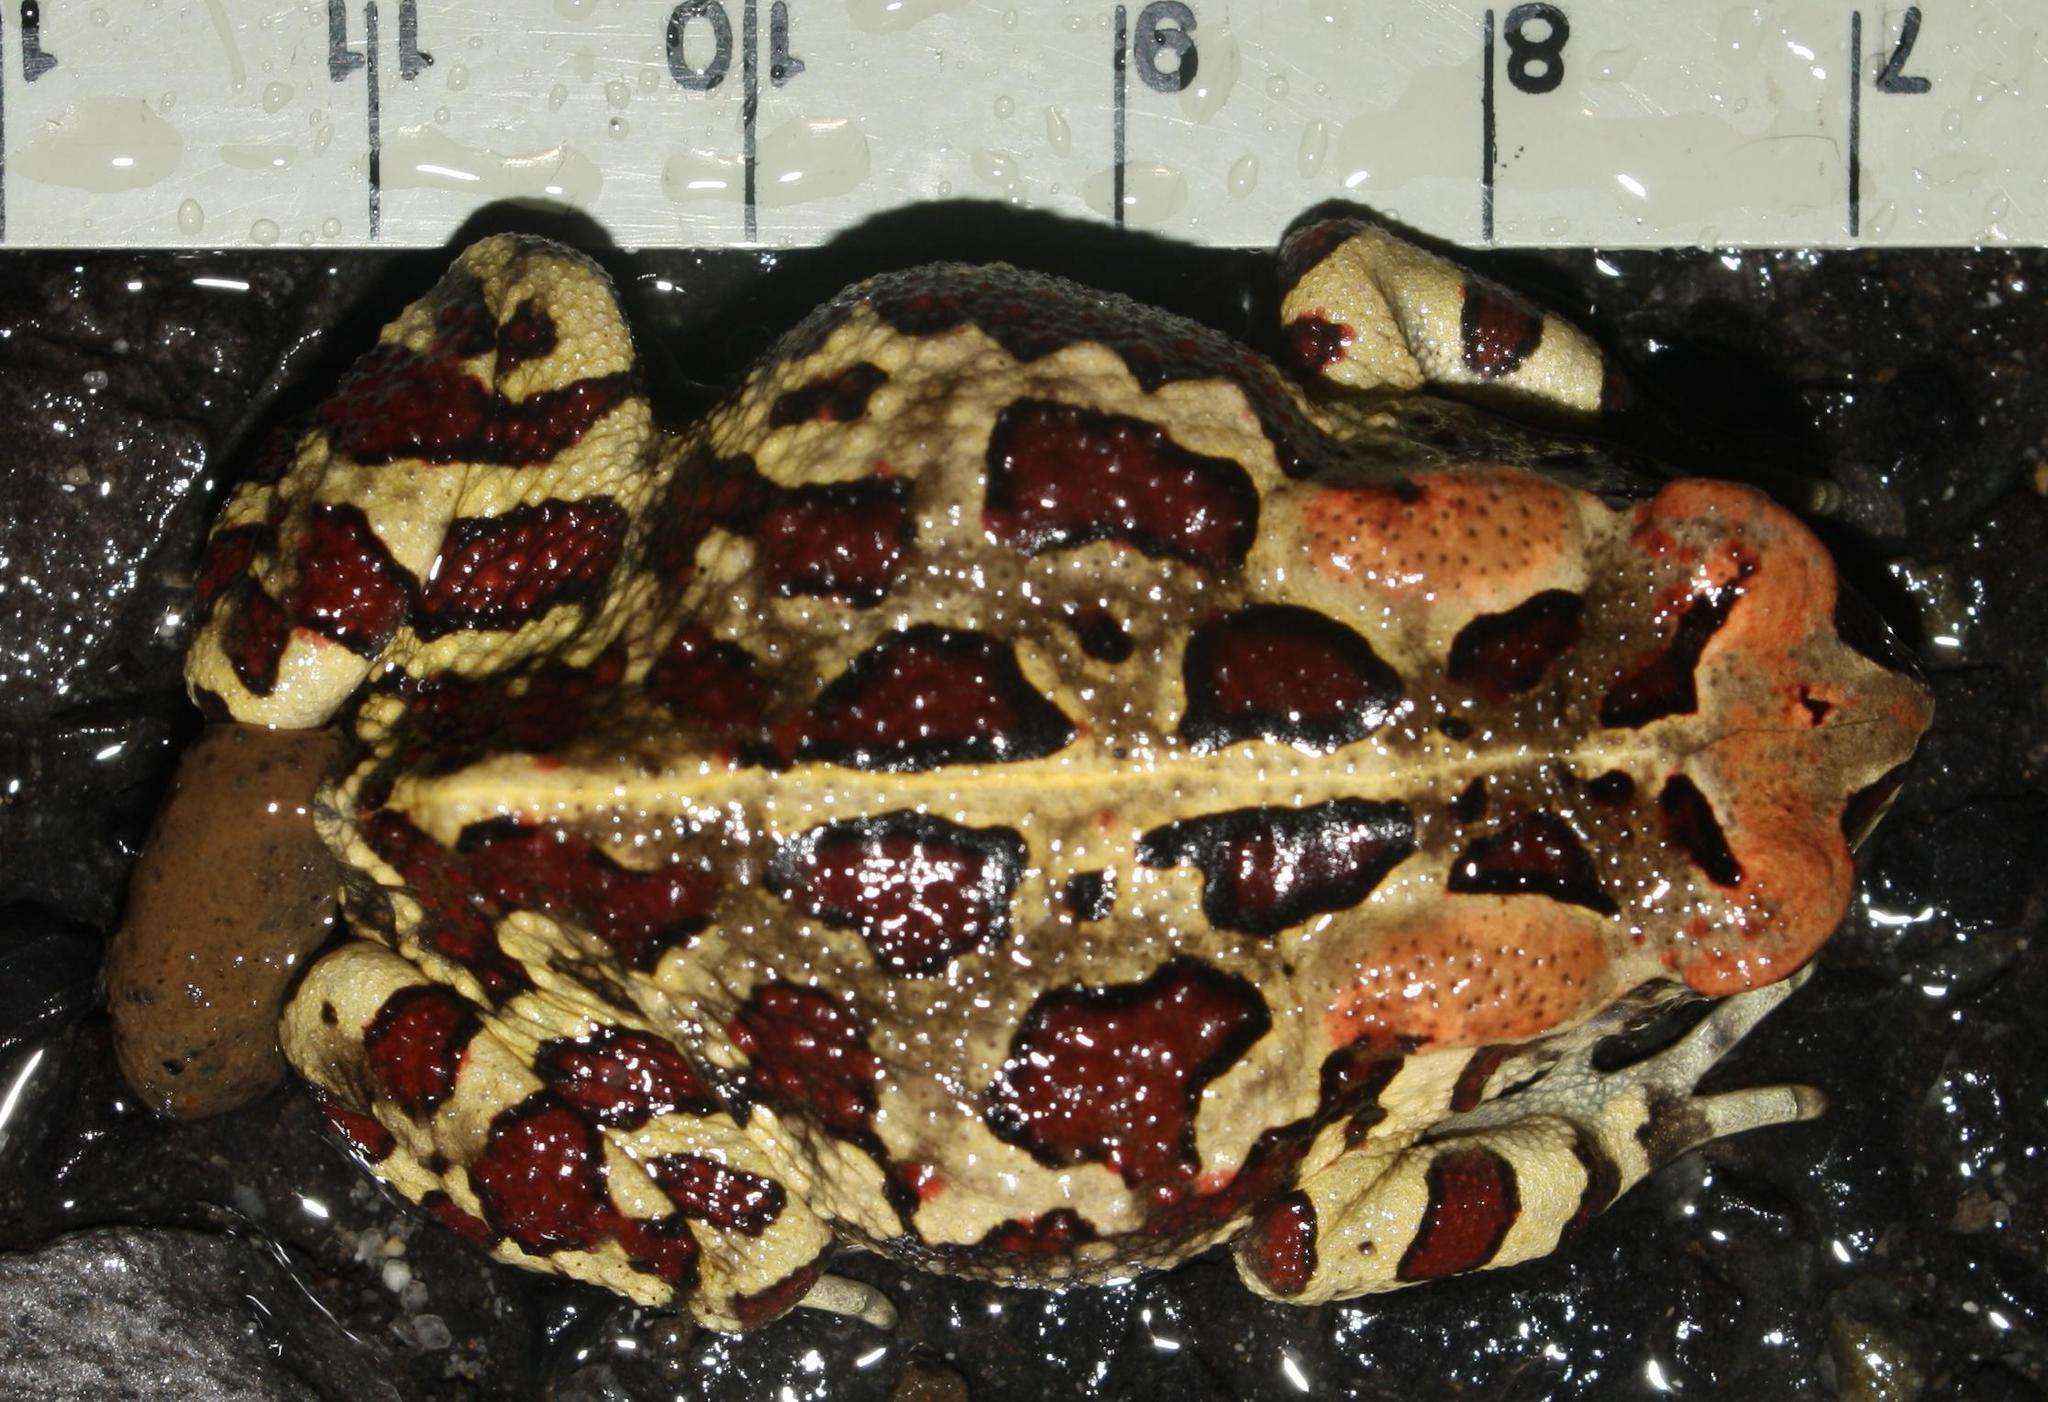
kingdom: Animalia
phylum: Chordata
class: Amphibia
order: Anura
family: Bufonidae
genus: Sclerophrys
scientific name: Sclerophrys pantherina
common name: Panther toad
